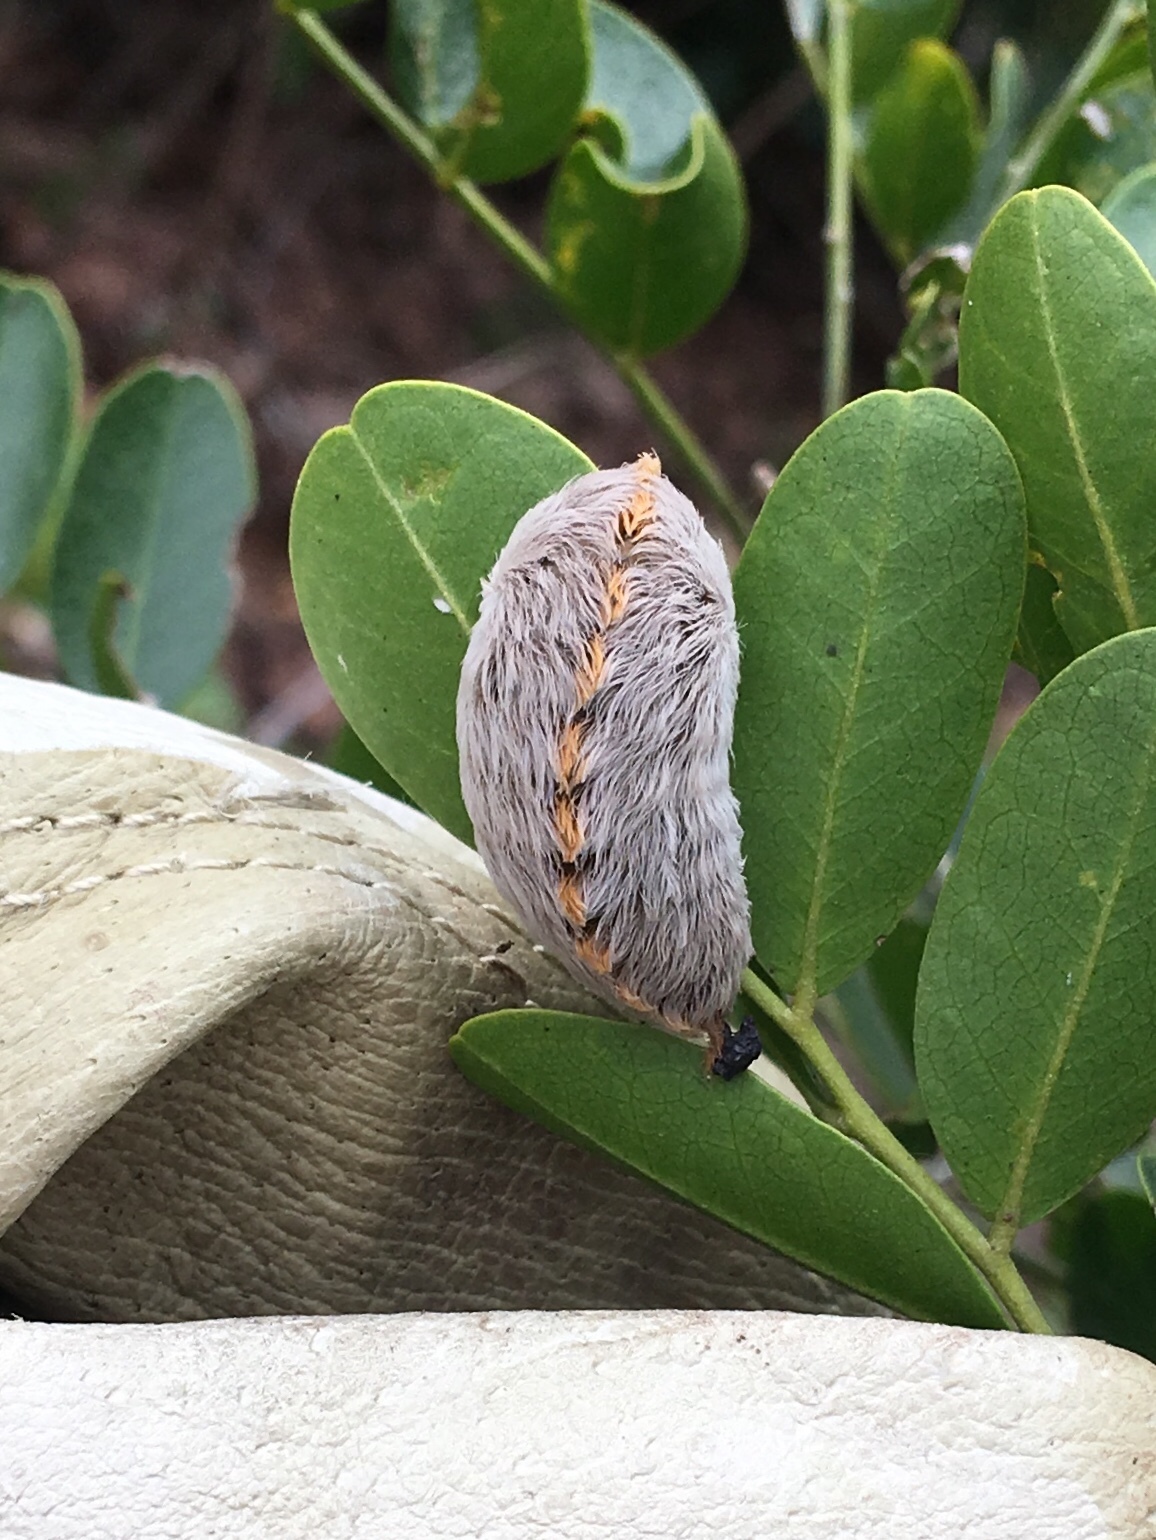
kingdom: Animalia
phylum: Arthropoda
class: Insecta
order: Lepidoptera
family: Megalopygidae
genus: Megalopyge
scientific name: Megalopyge opercularis
